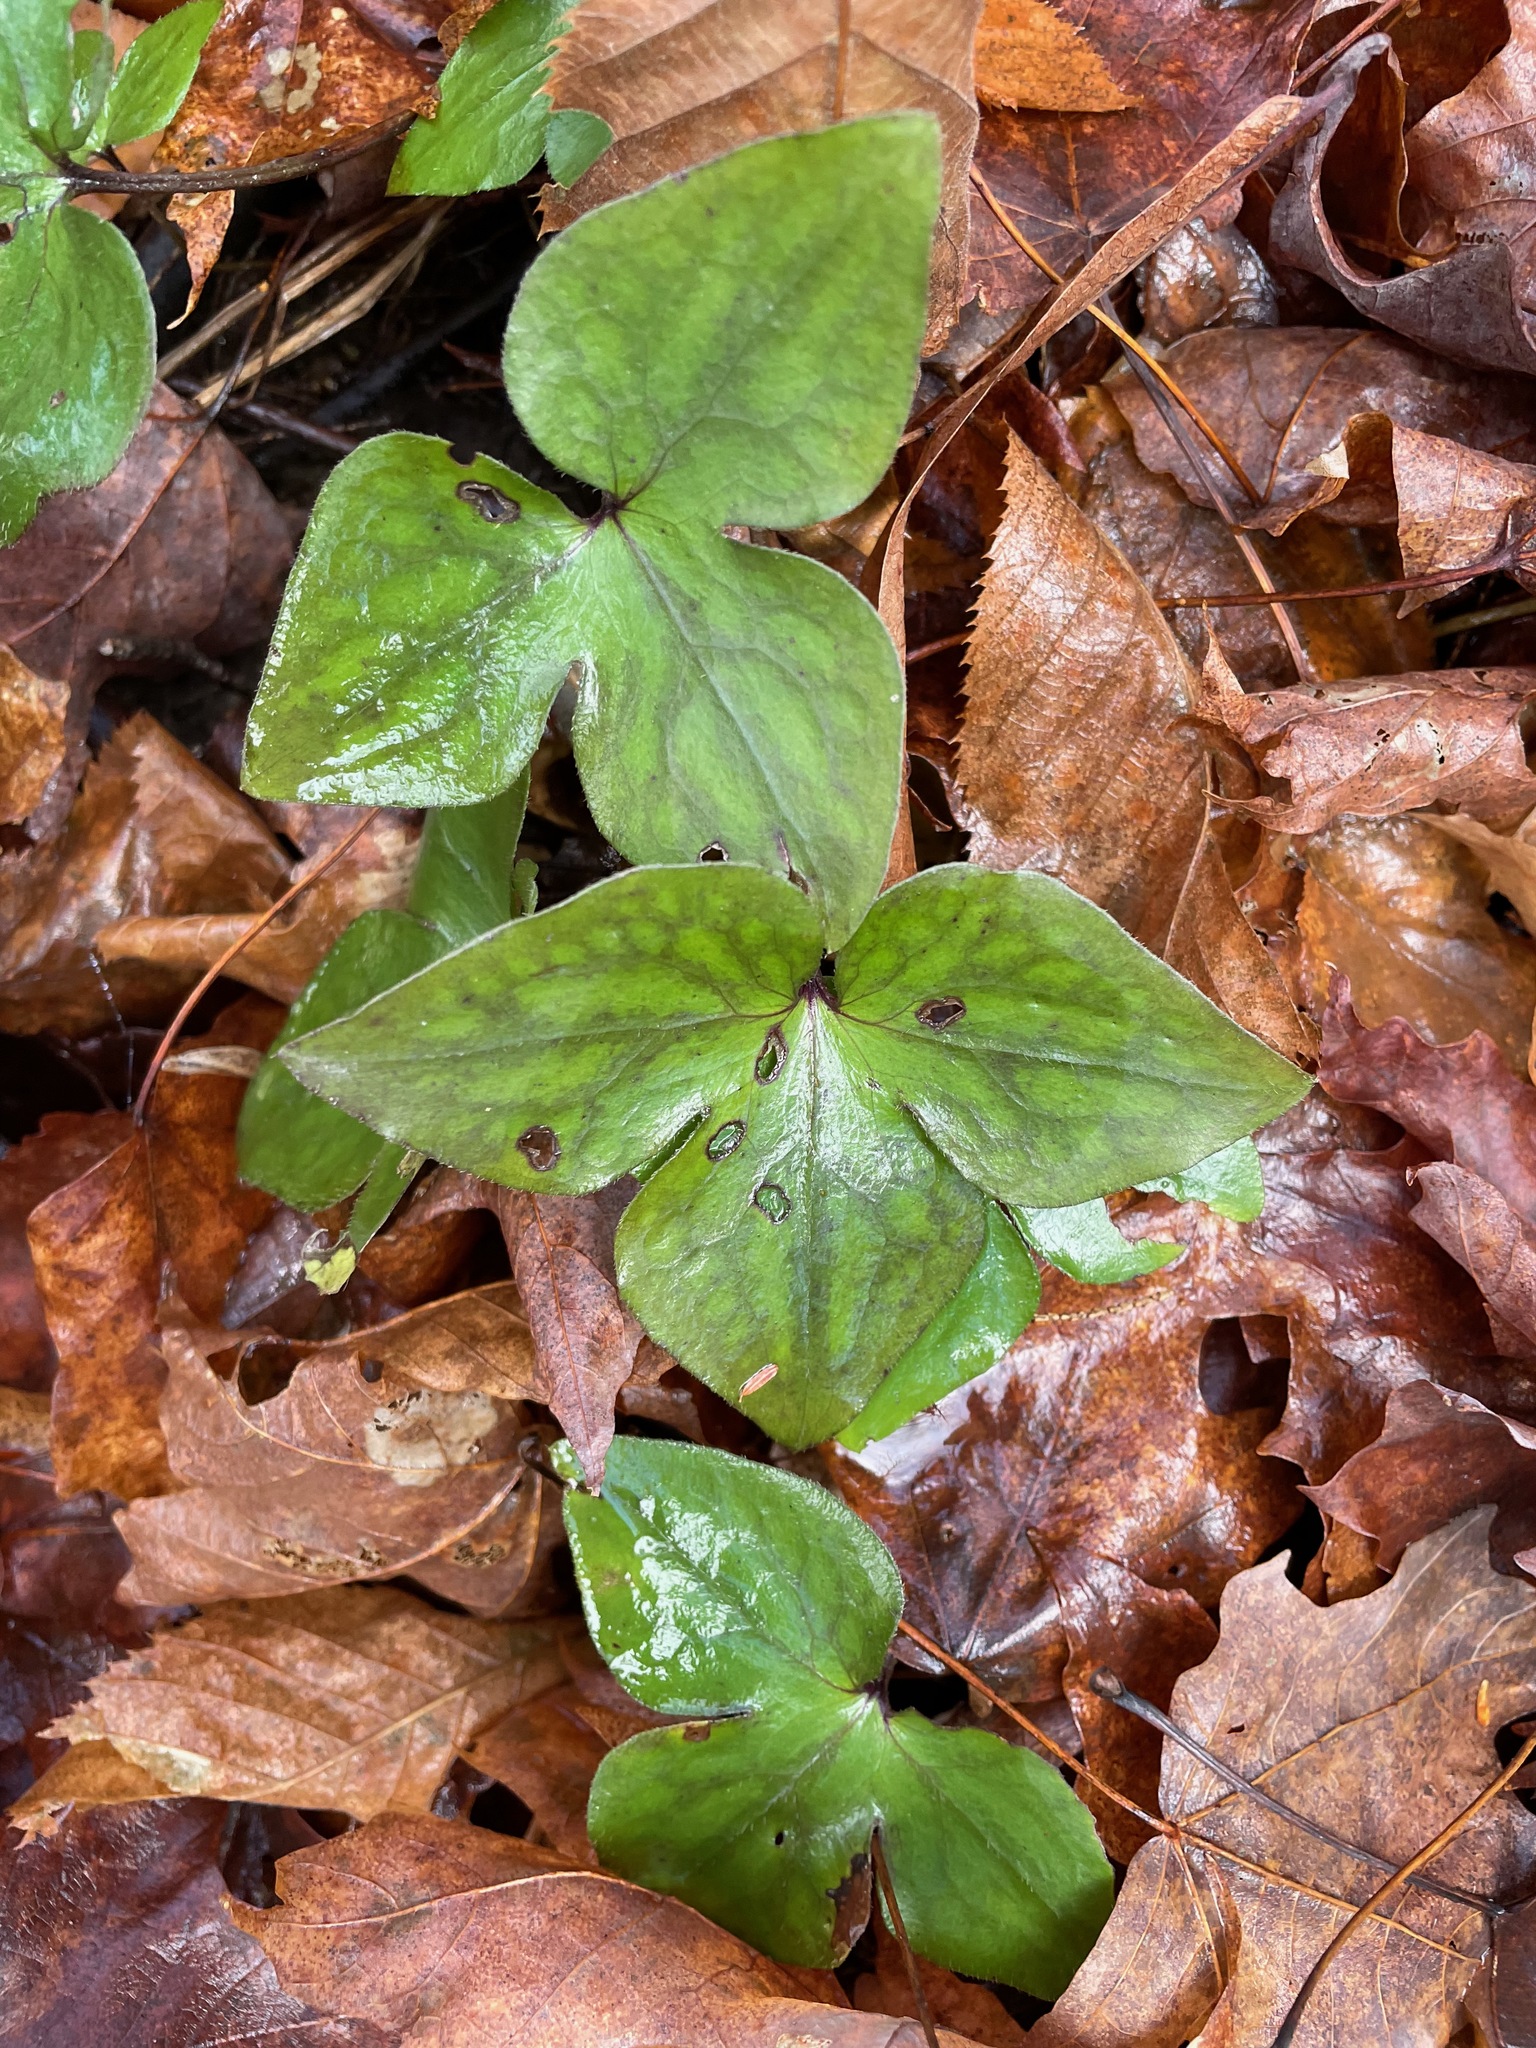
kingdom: Plantae
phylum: Tracheophyta
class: Magnoliopsida
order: Ranunculales
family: Ranunculaceae
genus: Hepatica
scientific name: Hepatica acutiloba
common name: Sharp-lobed hepatica
